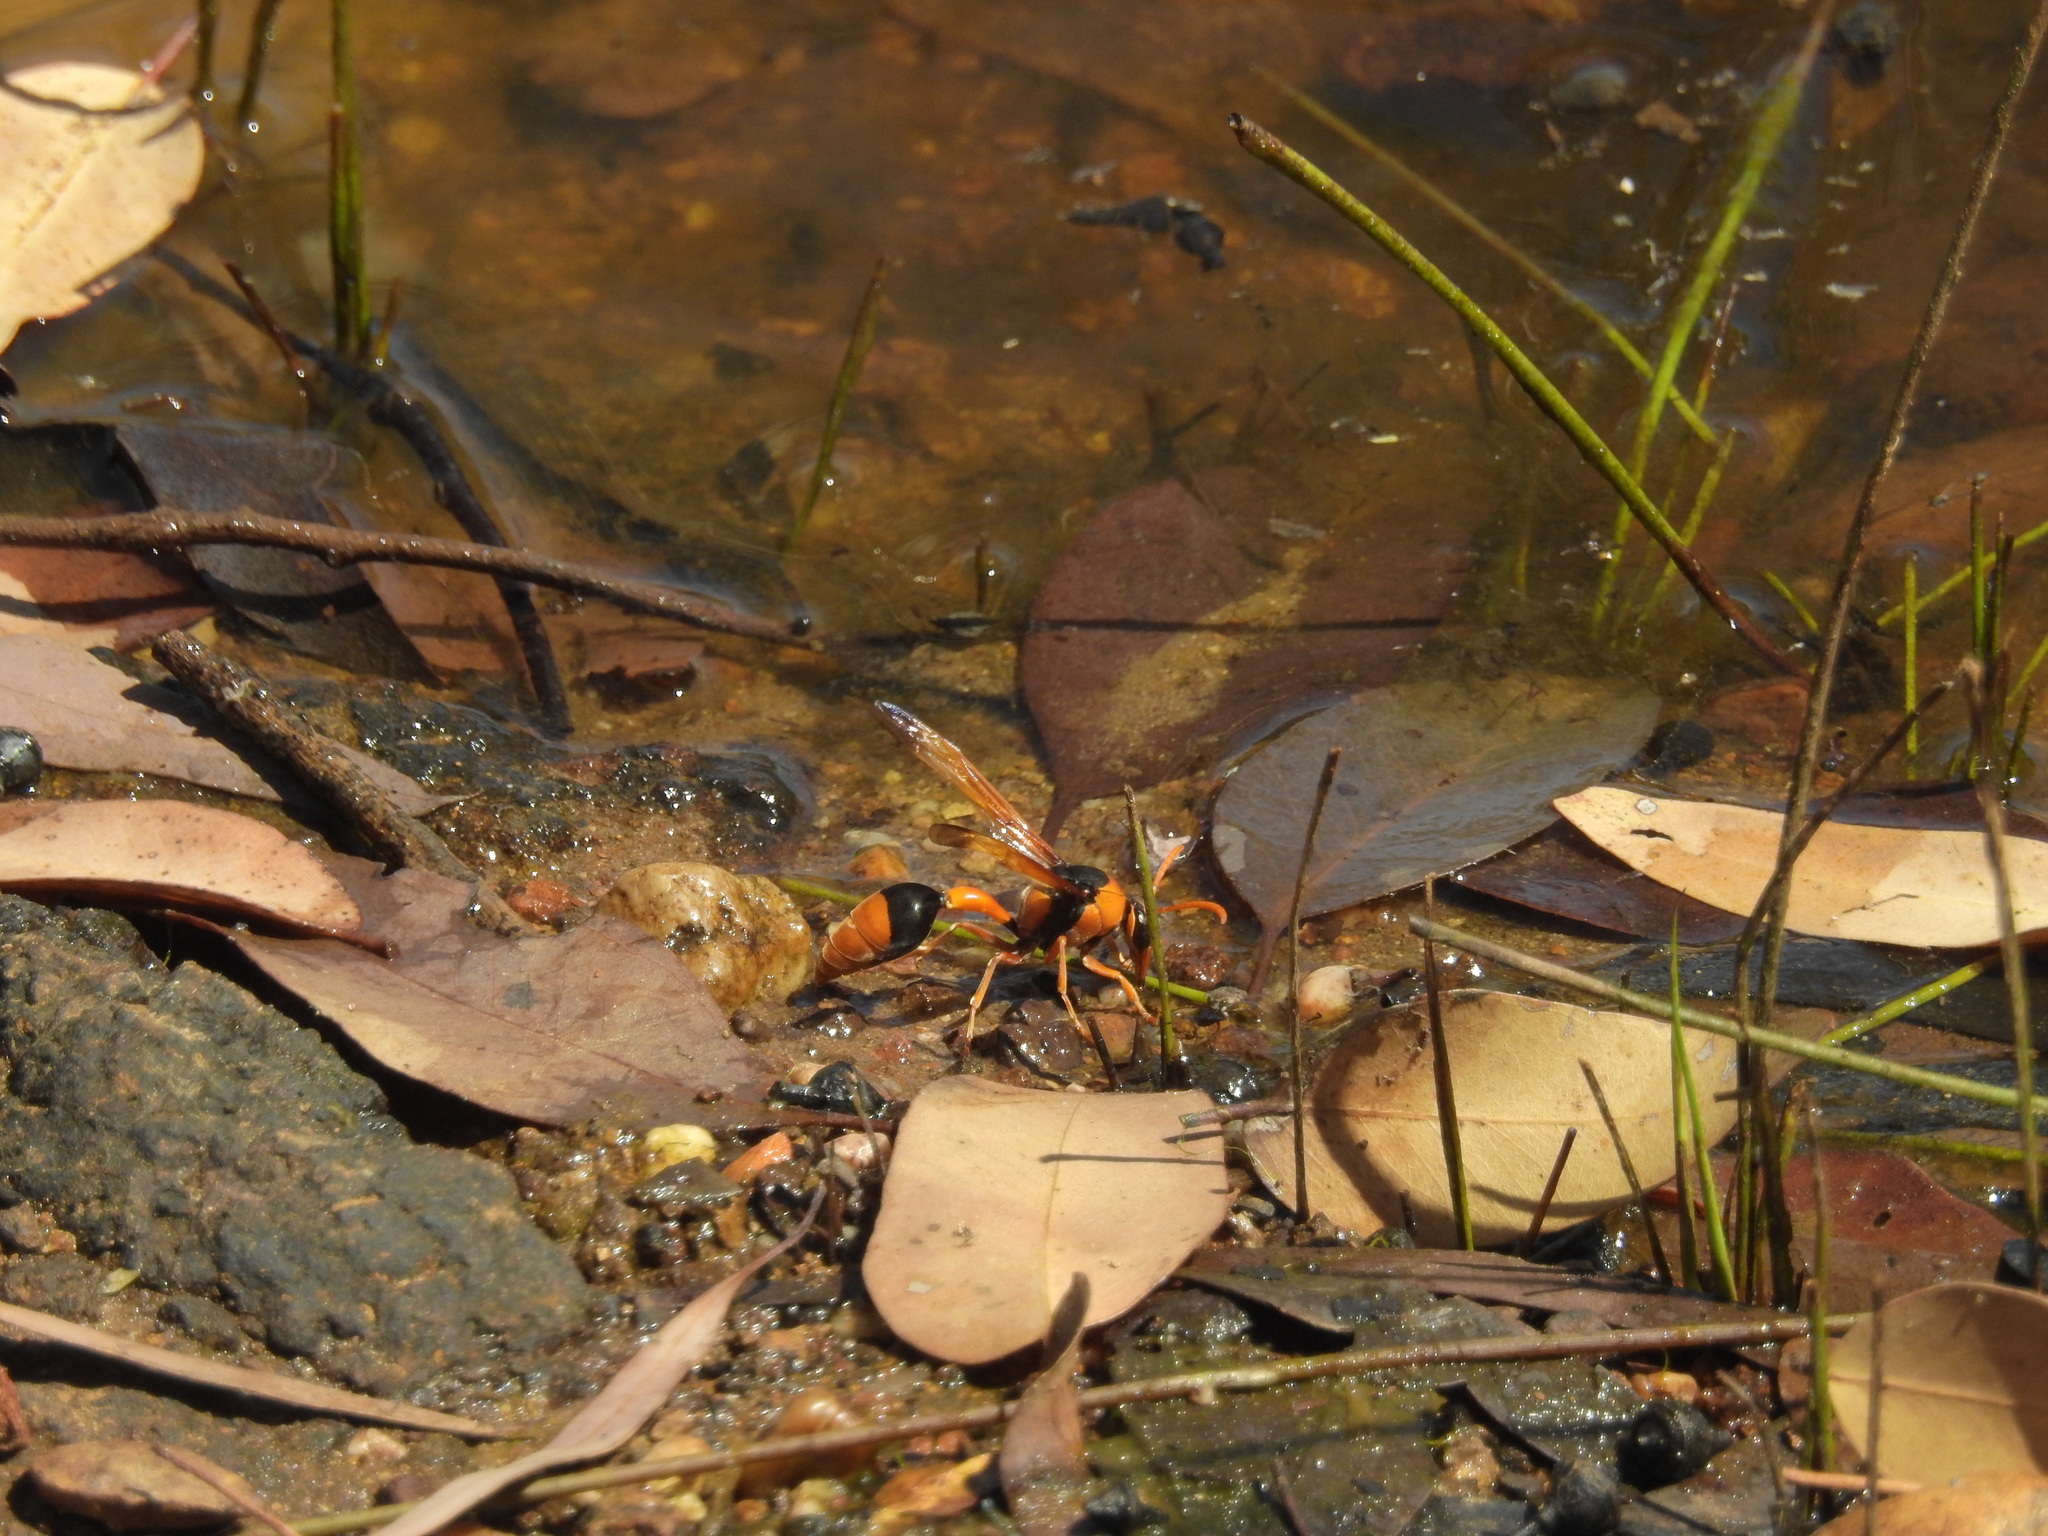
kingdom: Animalia
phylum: Arthropoda
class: Insecta
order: Hymenoptera
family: Eumenidae
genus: Delta
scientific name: Delta latreillei
